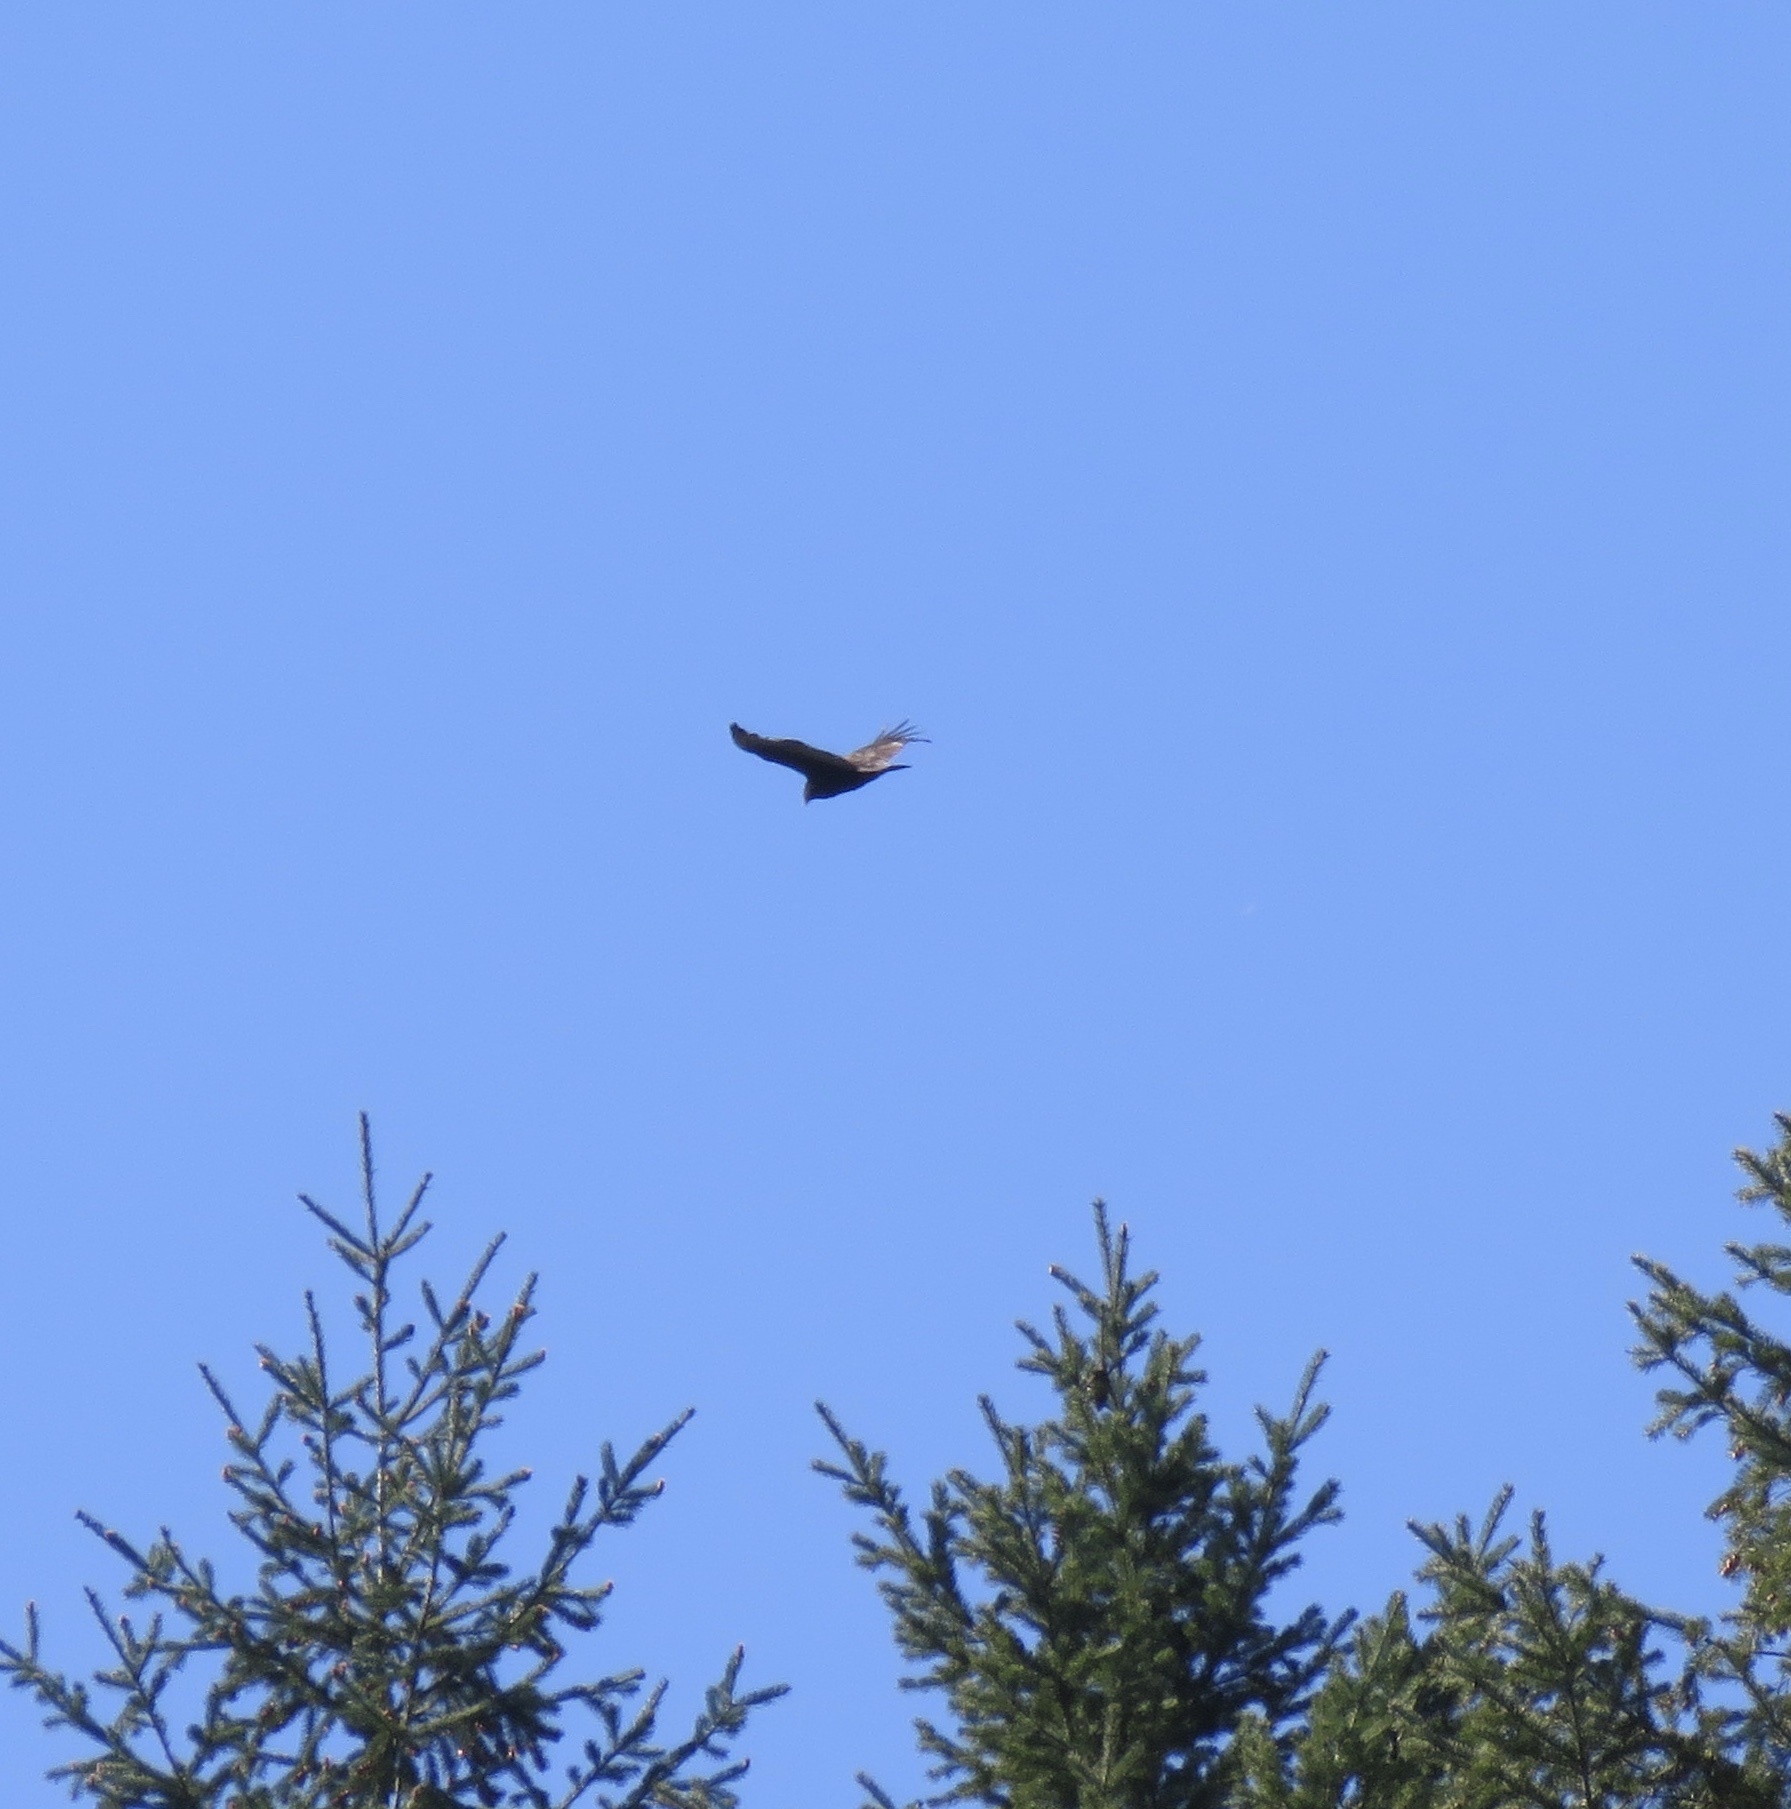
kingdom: Animalia
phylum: Chordata
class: Aves
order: Accipitriformes
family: Cathartidae
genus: Cathartes
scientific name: Cathartes aura
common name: Turkey vulture
